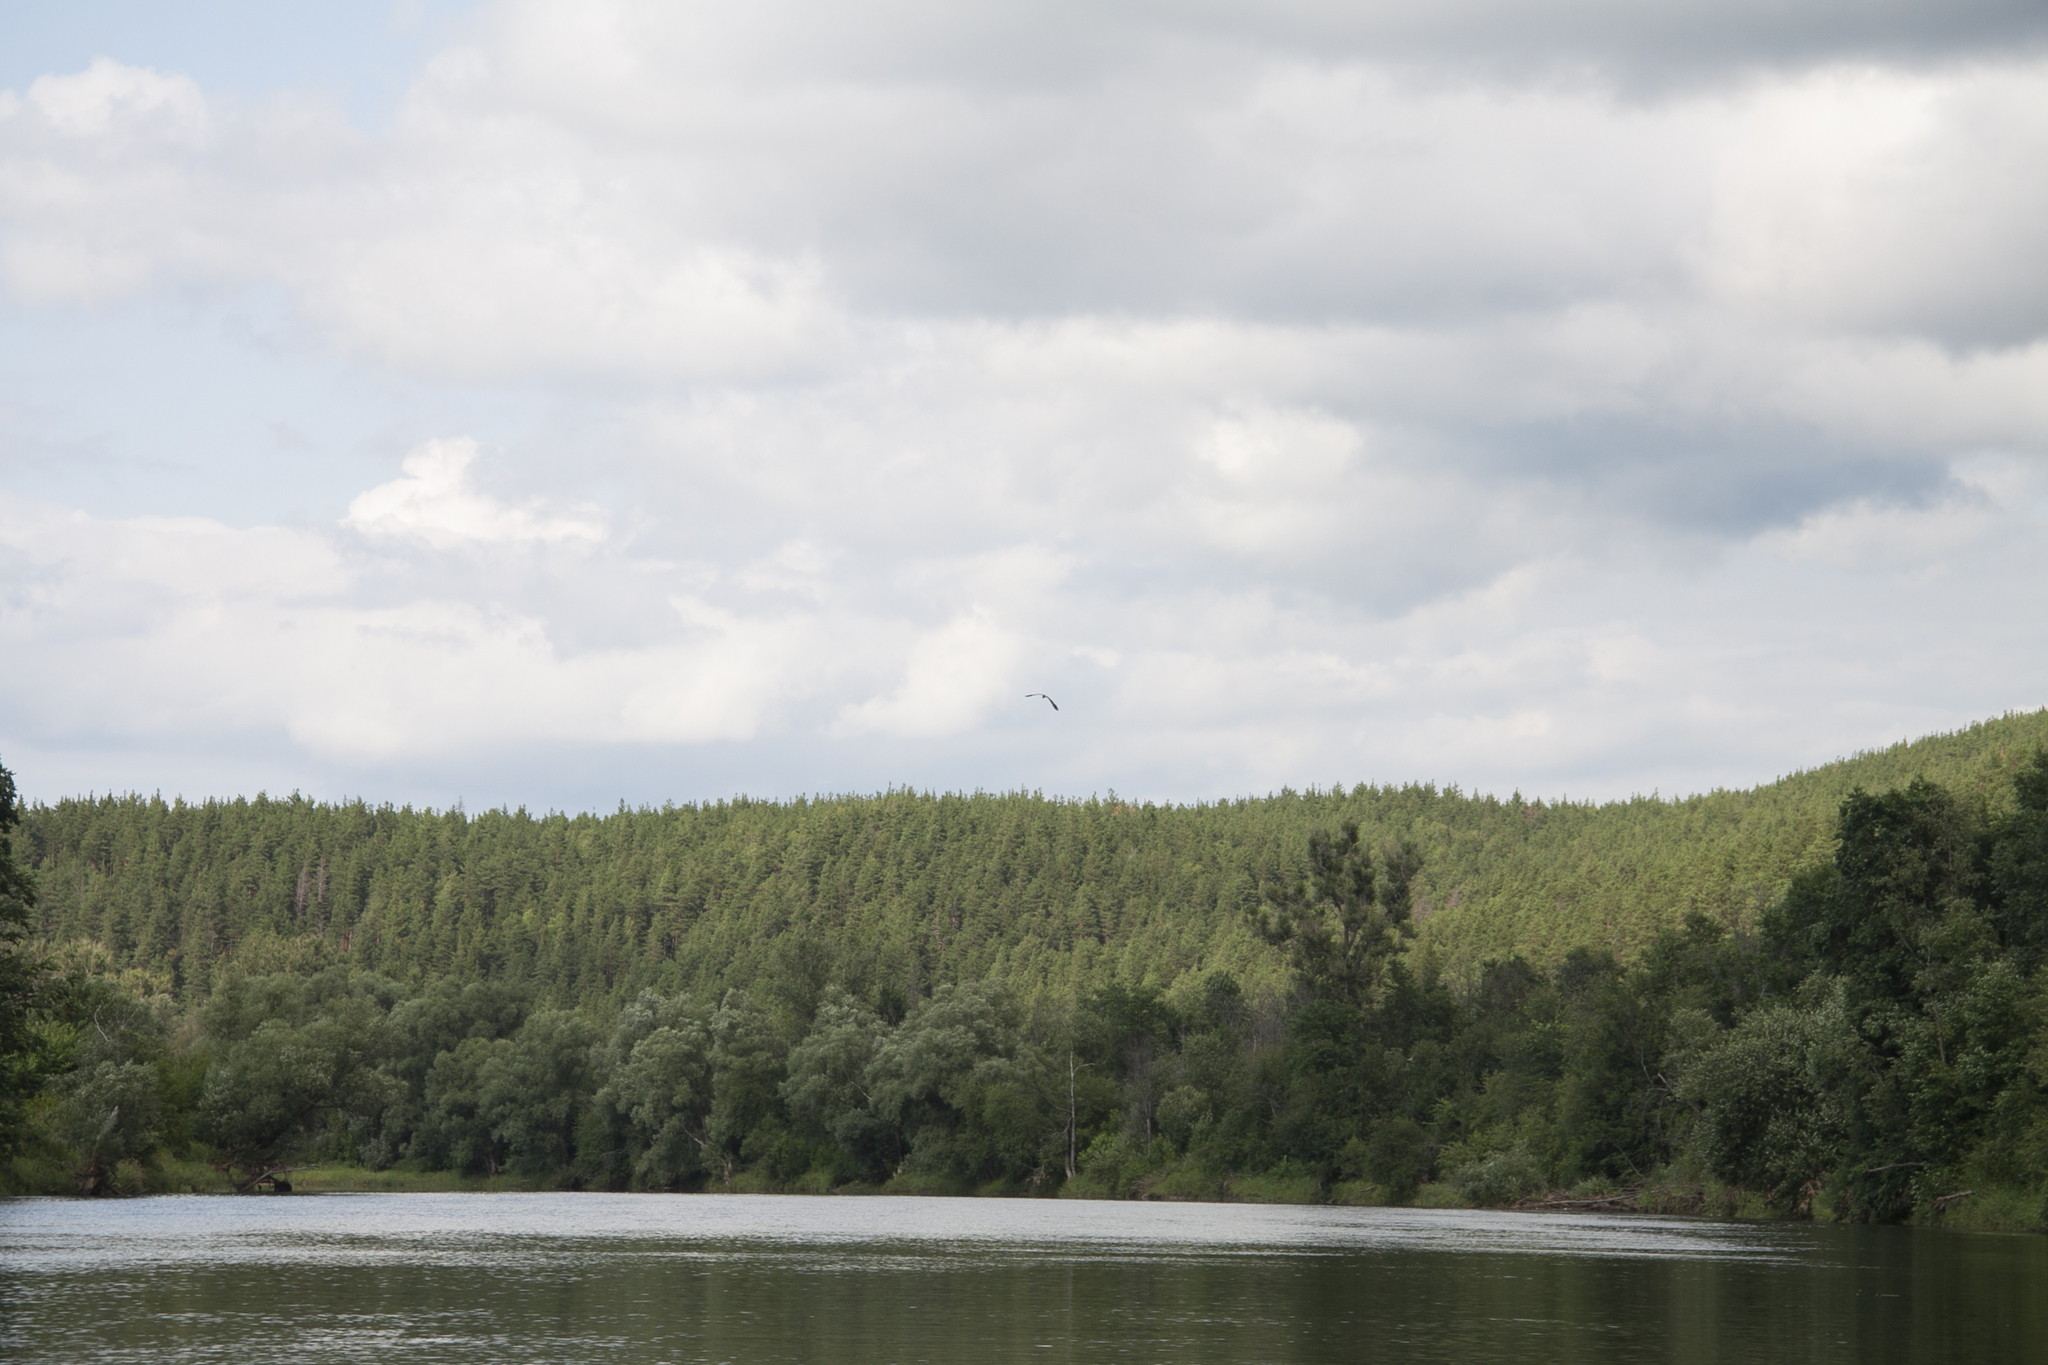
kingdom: Animalia
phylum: Chordata
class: Aves
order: Pelecaniformes
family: Ardeidae
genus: Ardea
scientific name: Ardea cinerea
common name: Grey heron
